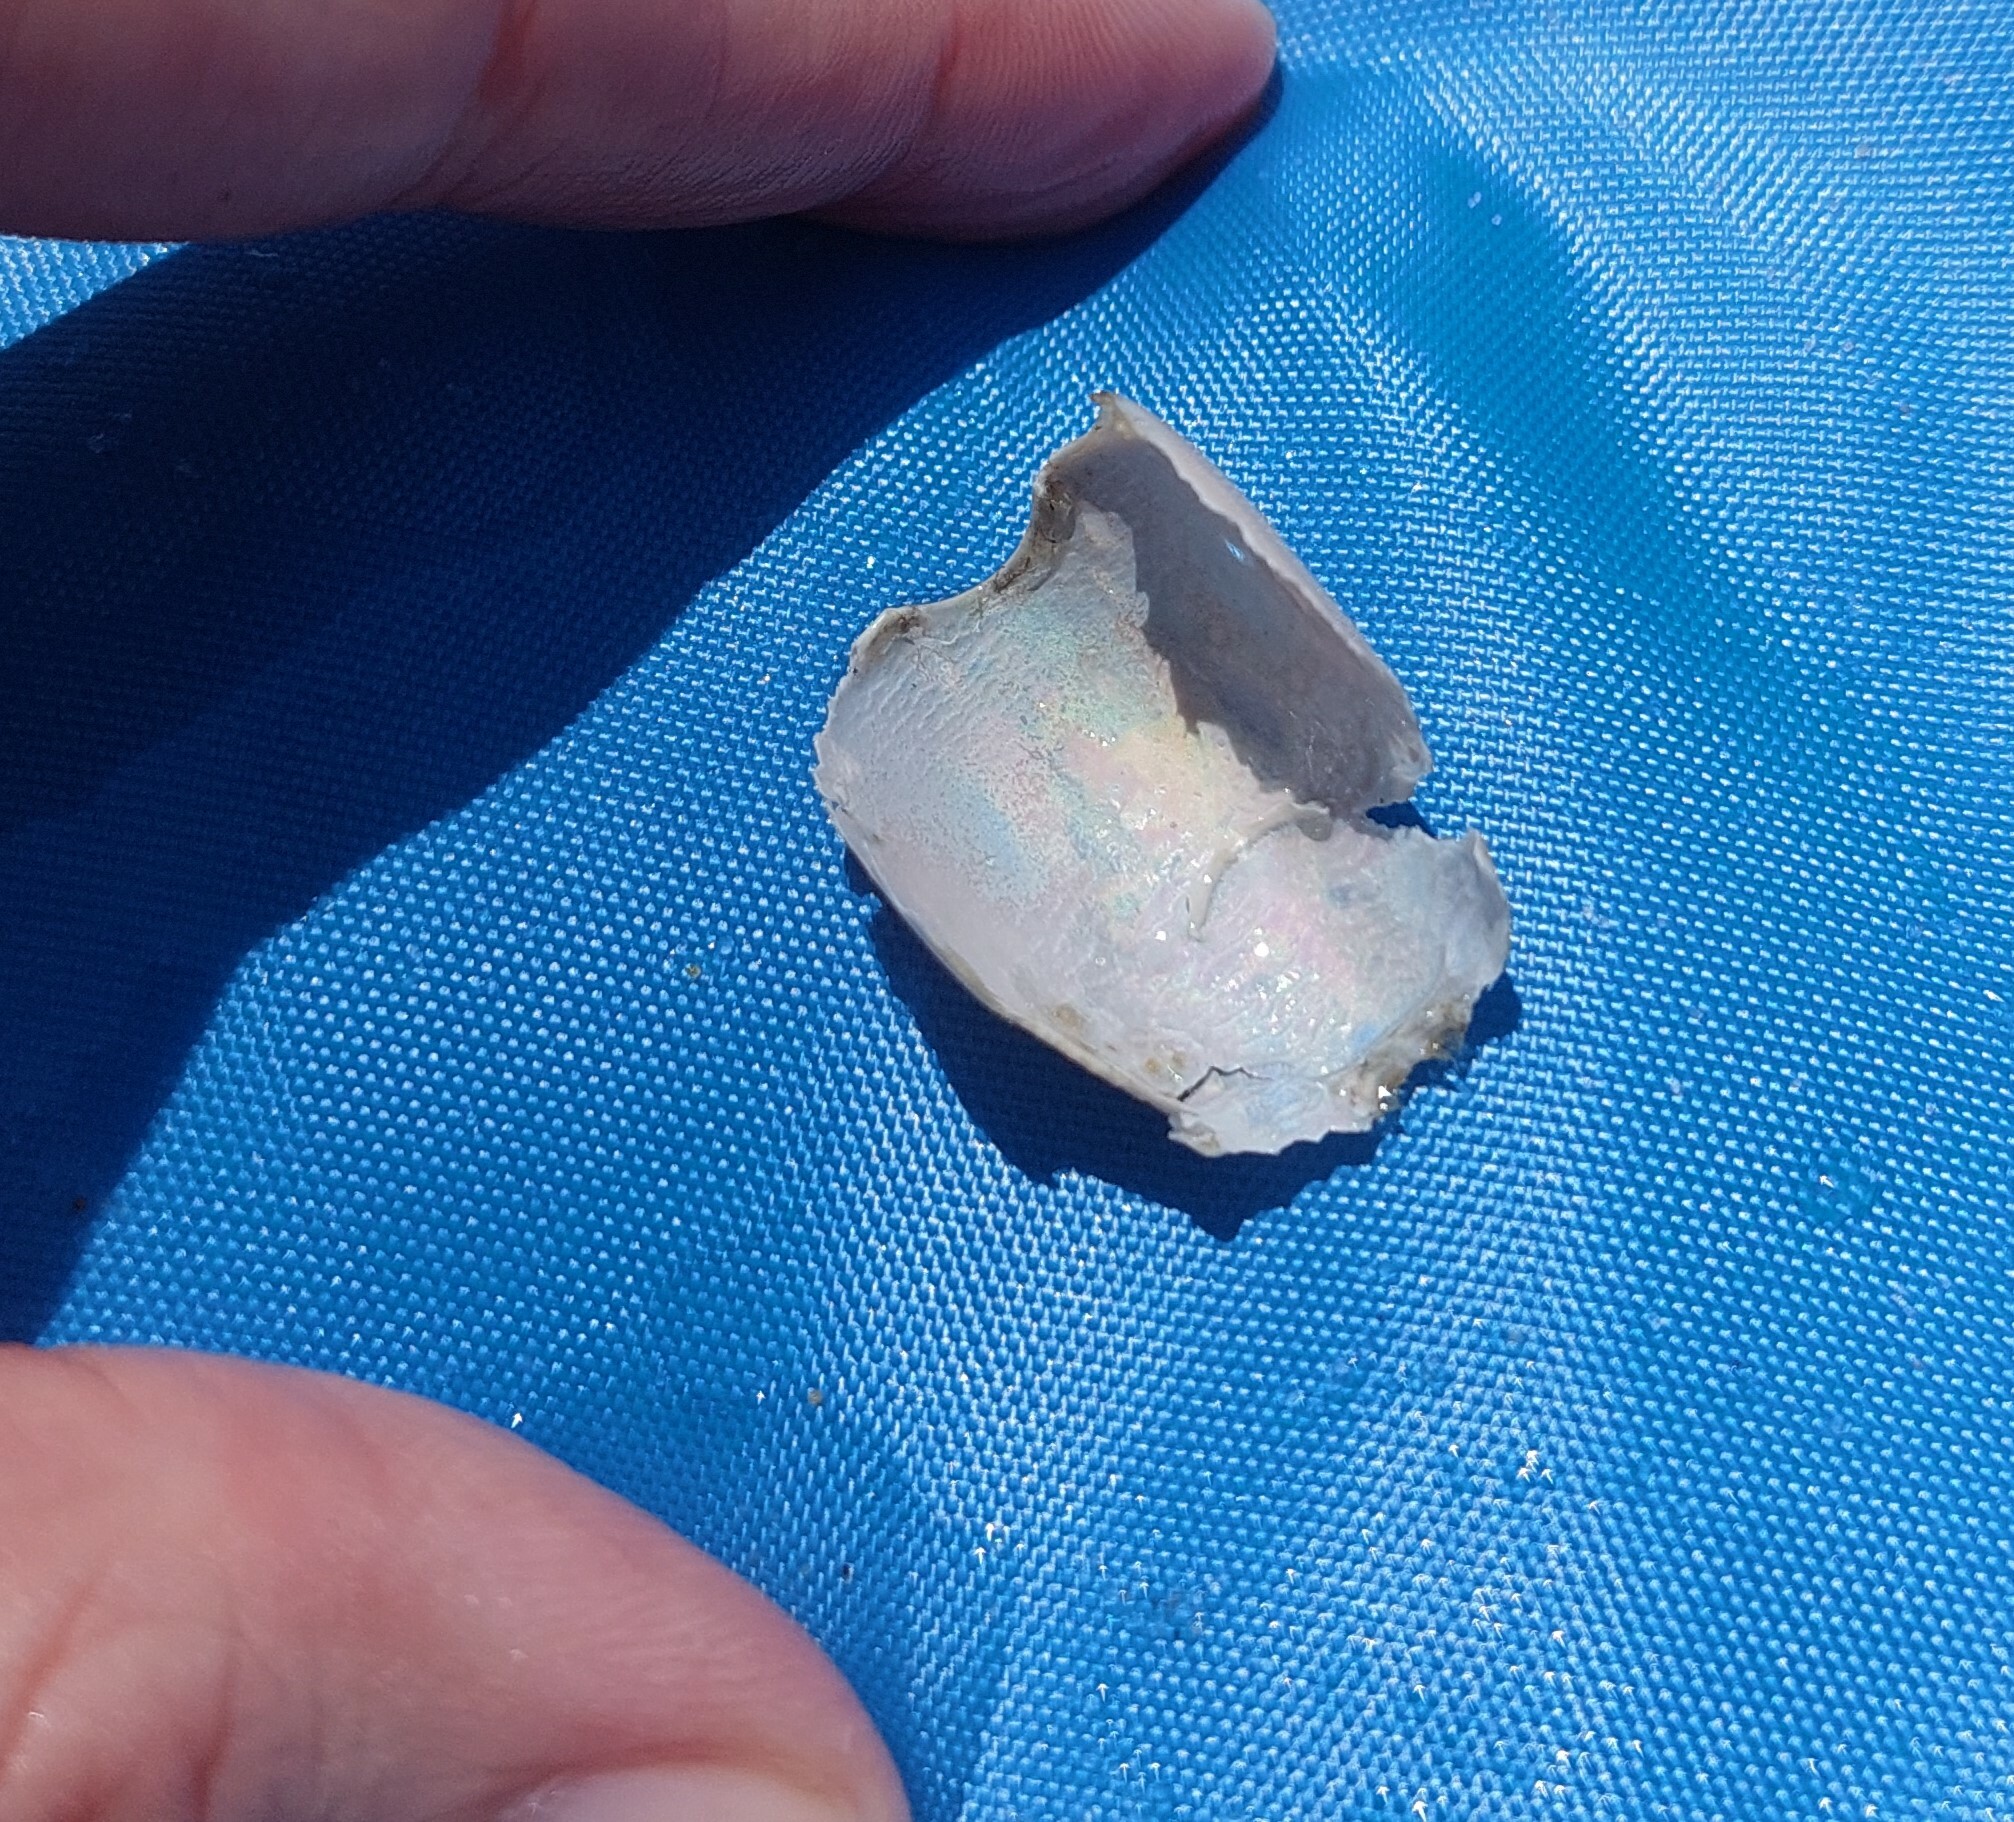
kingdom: Animalia
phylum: Arthropoda
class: Malacostraca
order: Decapoda
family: Hippidae
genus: Emerita
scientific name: Emerita talpoida
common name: Atlantic sand crab
